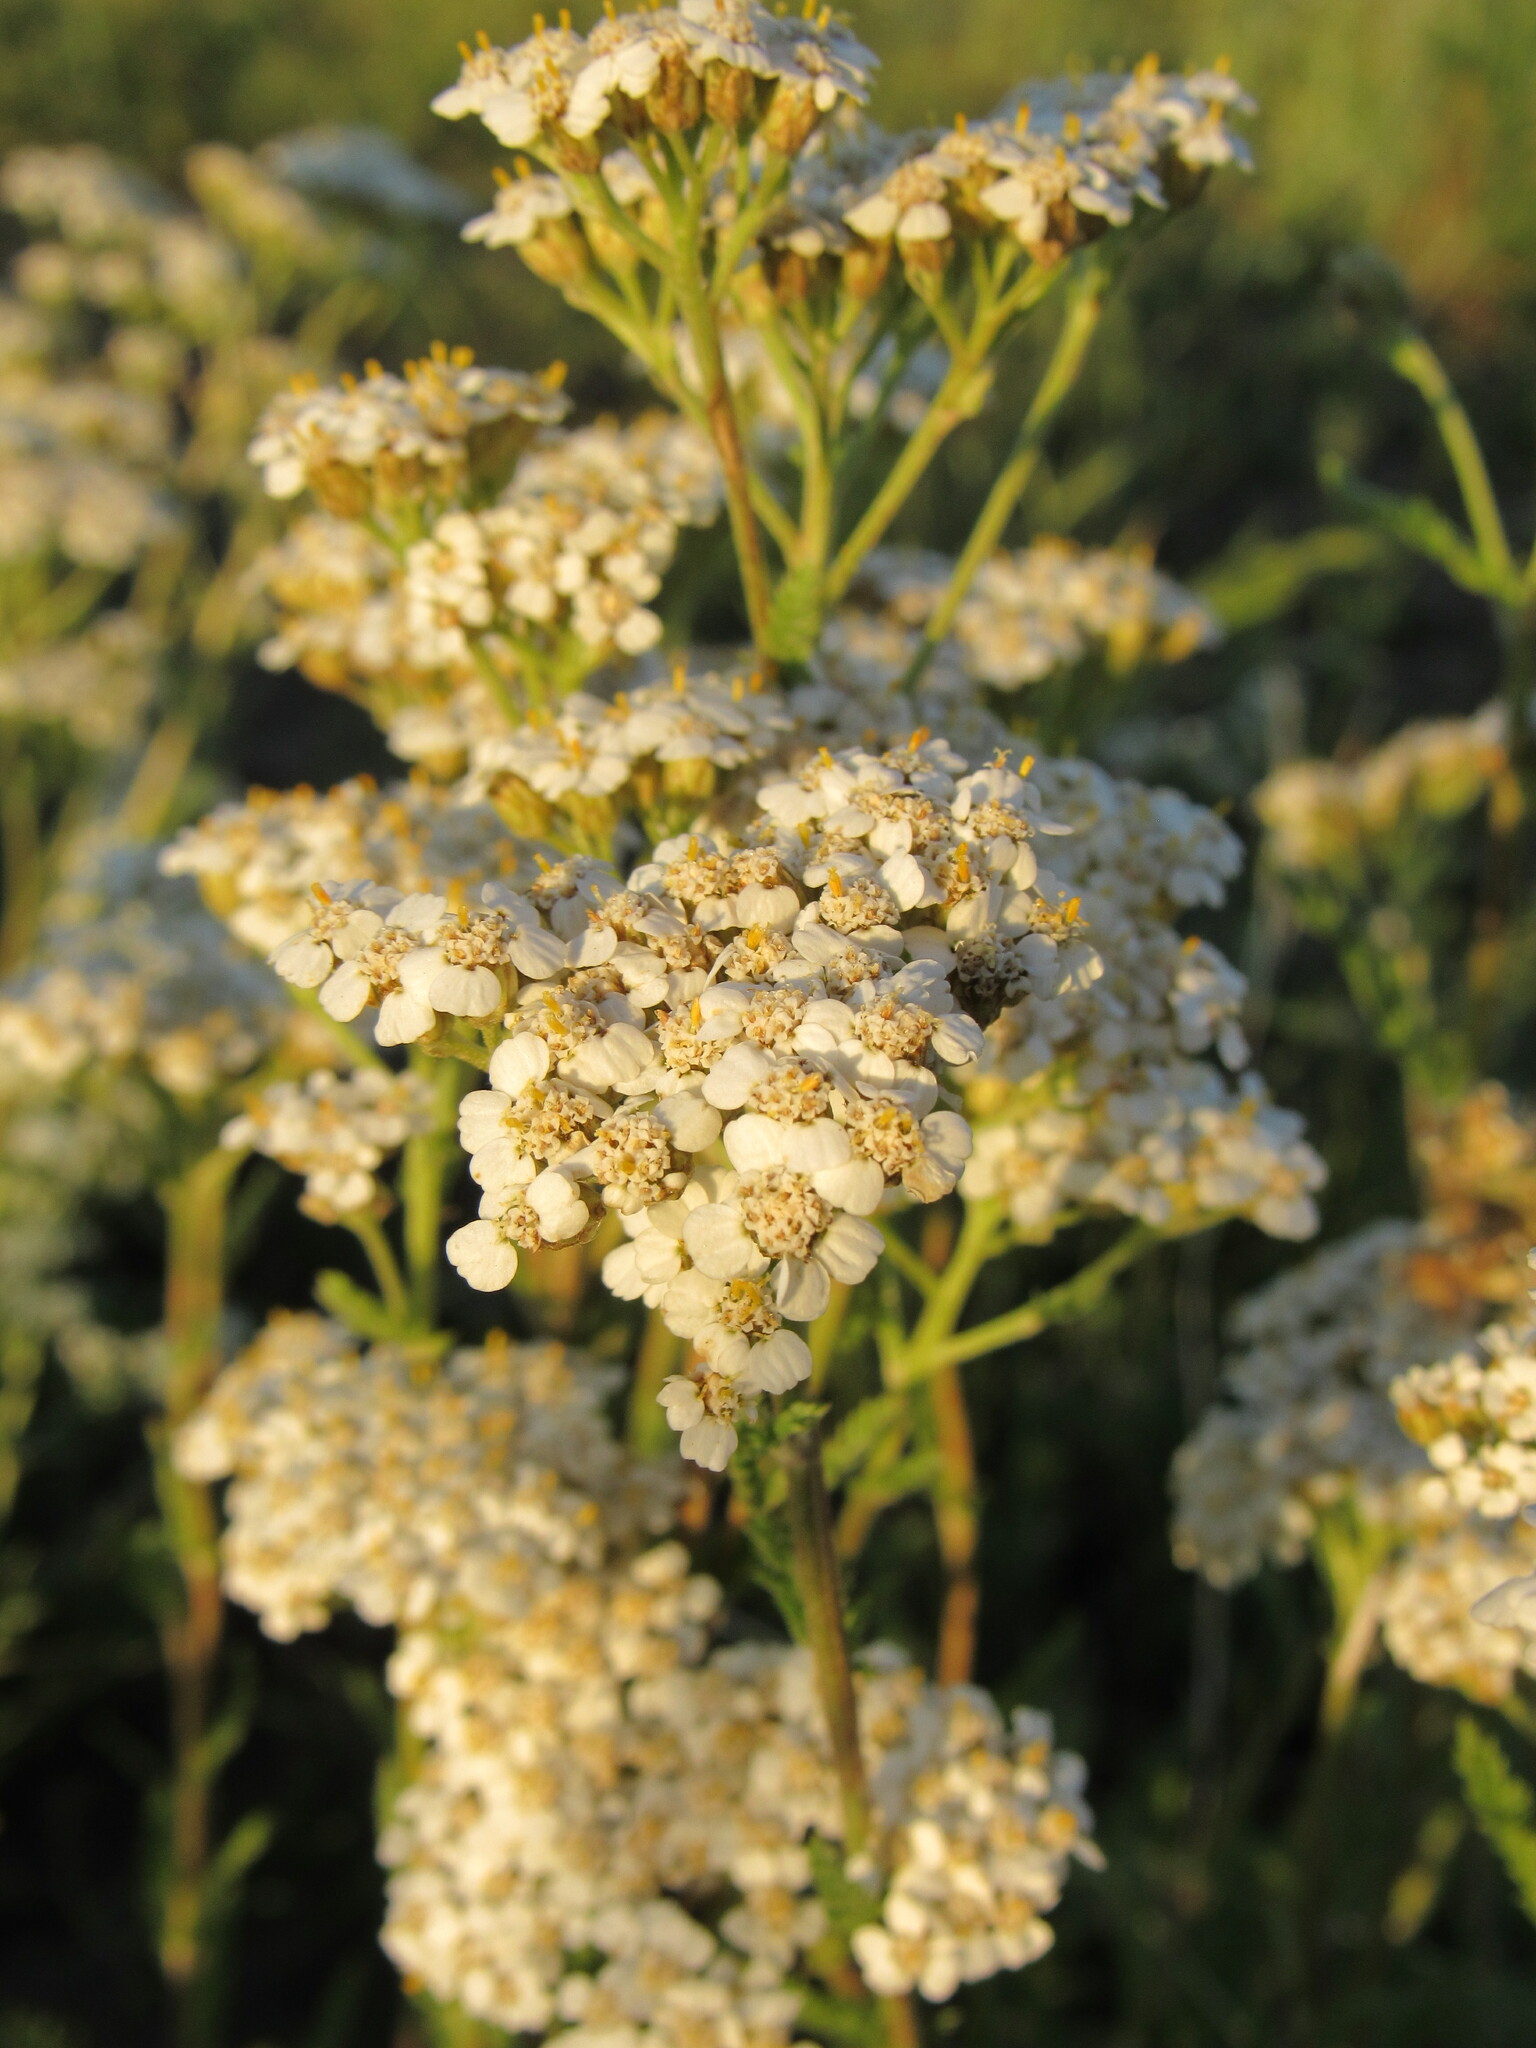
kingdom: Plantae
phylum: Tracheophyta
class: Magnoliopsida
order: Asterales
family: Asteraceae
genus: Achillea
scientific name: Achillea millefolium
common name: Yarrow
